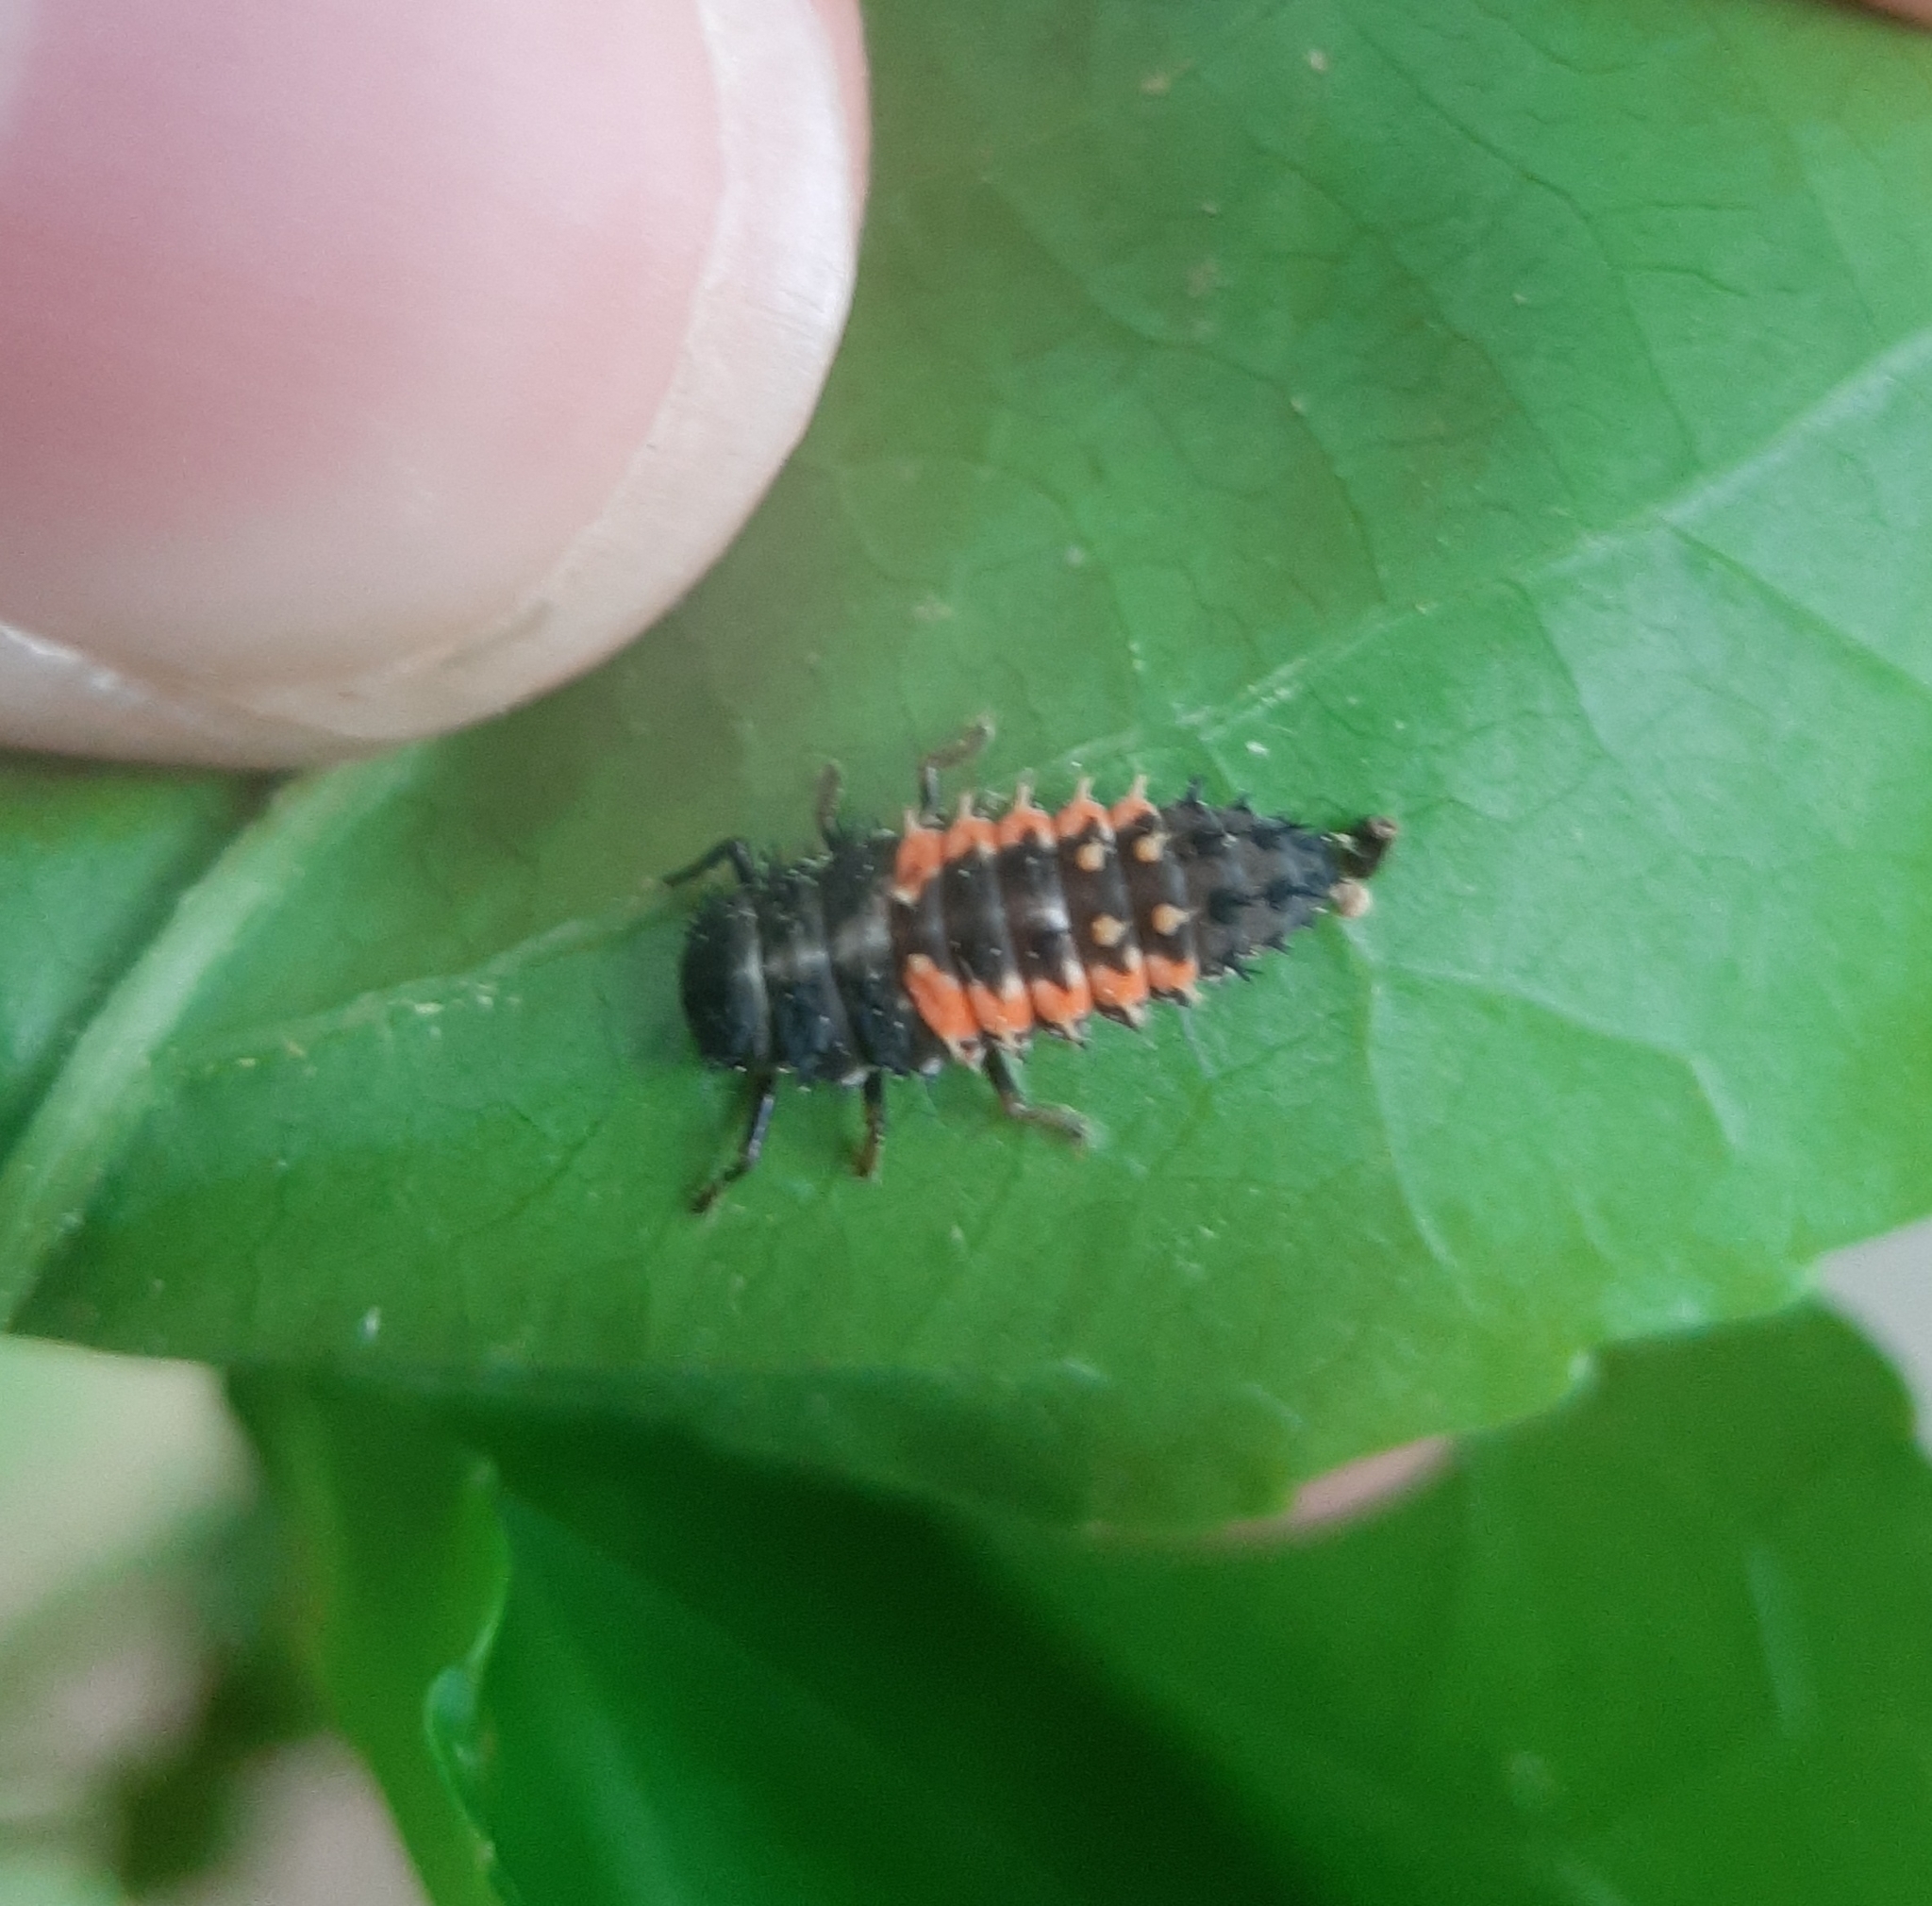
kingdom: Animalia
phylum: Arthropoda
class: Insecta
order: Coleoptera
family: Coccinellidae
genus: Harmonia
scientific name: Harmonia axyridis
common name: Harlequin ladybird
